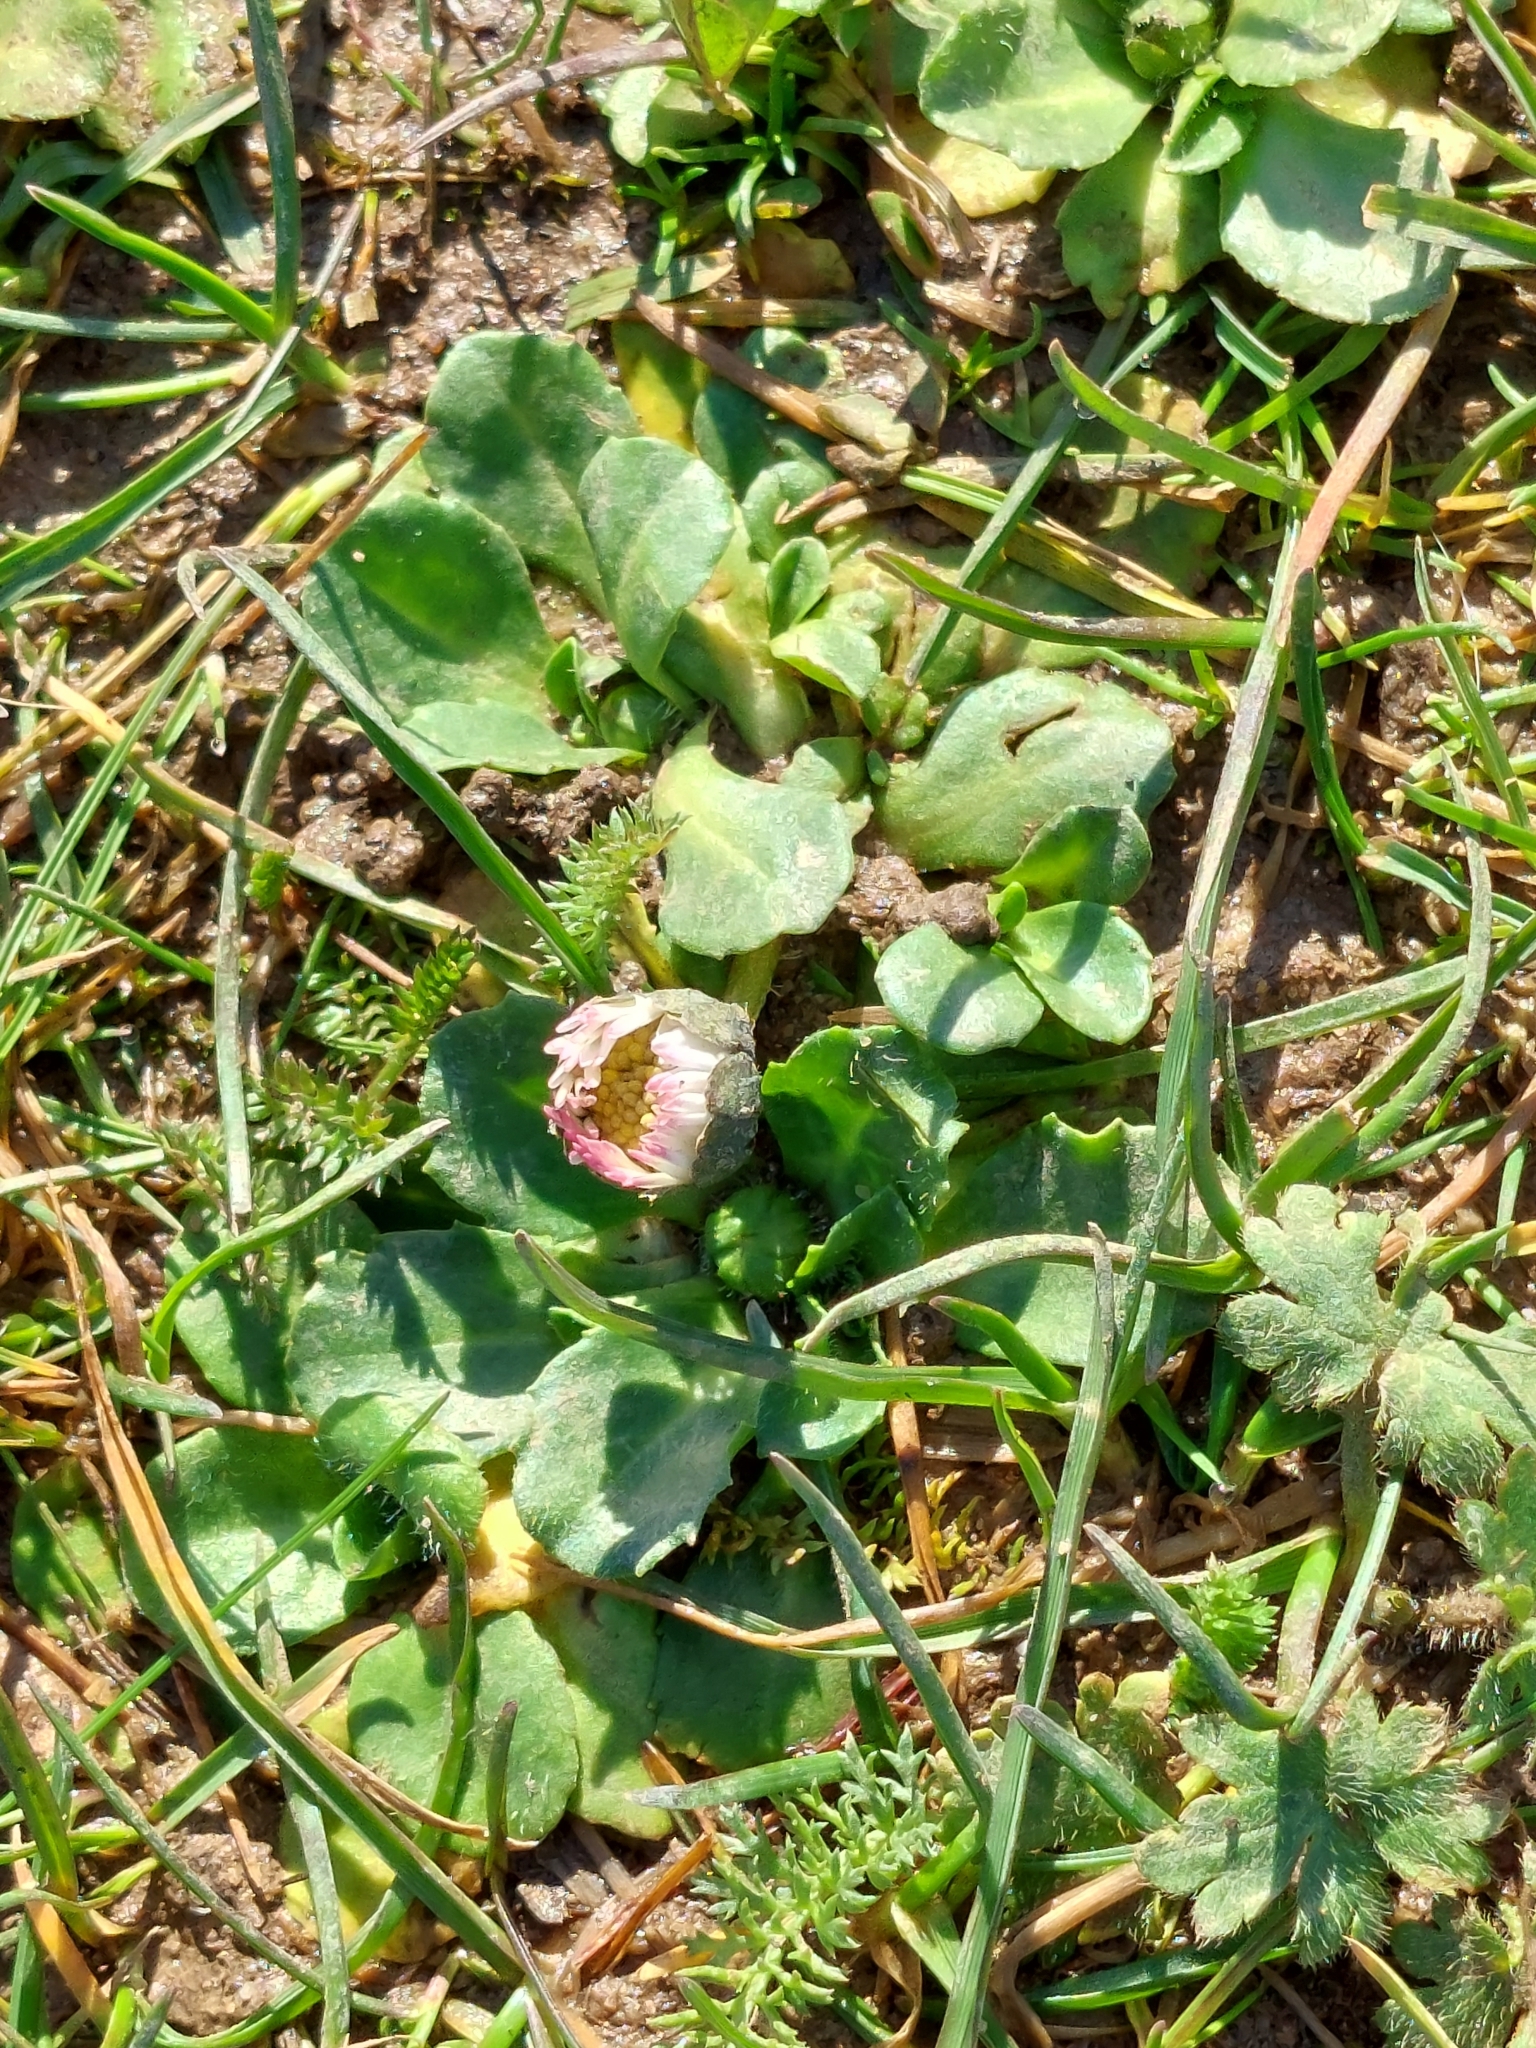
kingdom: Plantae
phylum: Tracheophyta
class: Magnoliopsida
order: Asterales
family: Asteraceae
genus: Bellis
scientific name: Bellis perennis
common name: Lawndaisy
